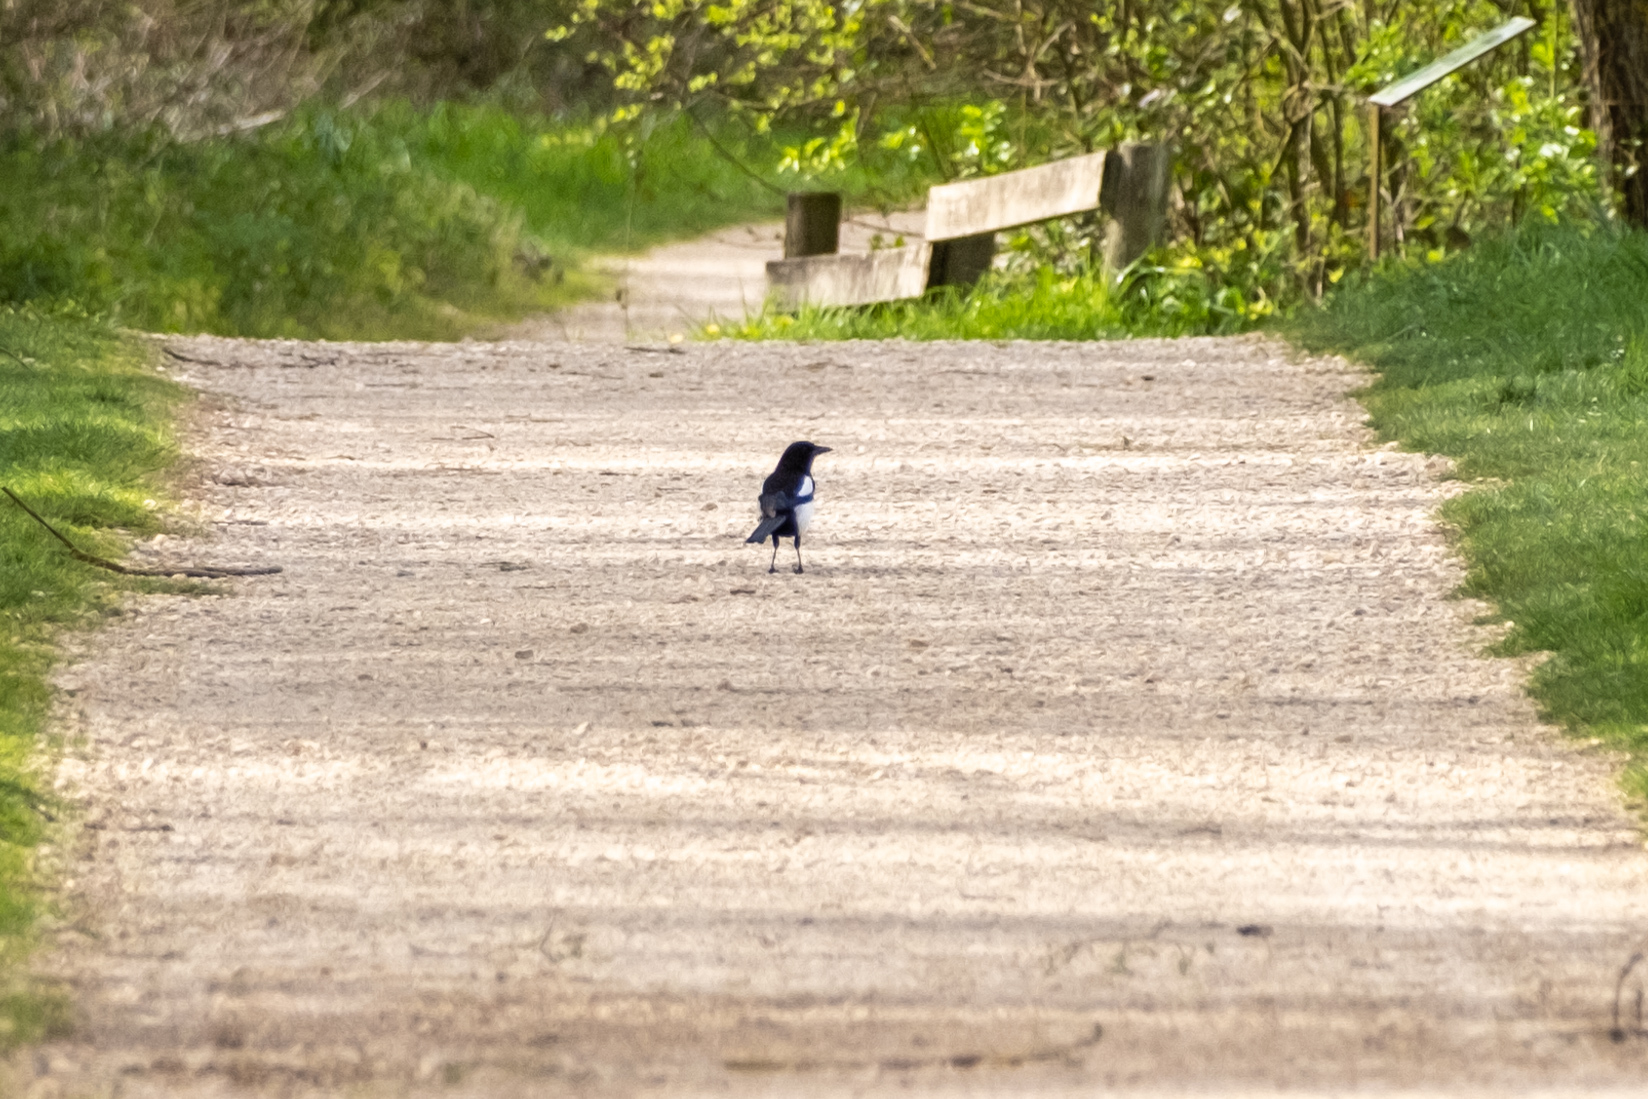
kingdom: Animalia
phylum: Chordata
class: Aves
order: Passeriformes
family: Corvidae
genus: Pica
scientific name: Pica pica
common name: Eurasian magpie
